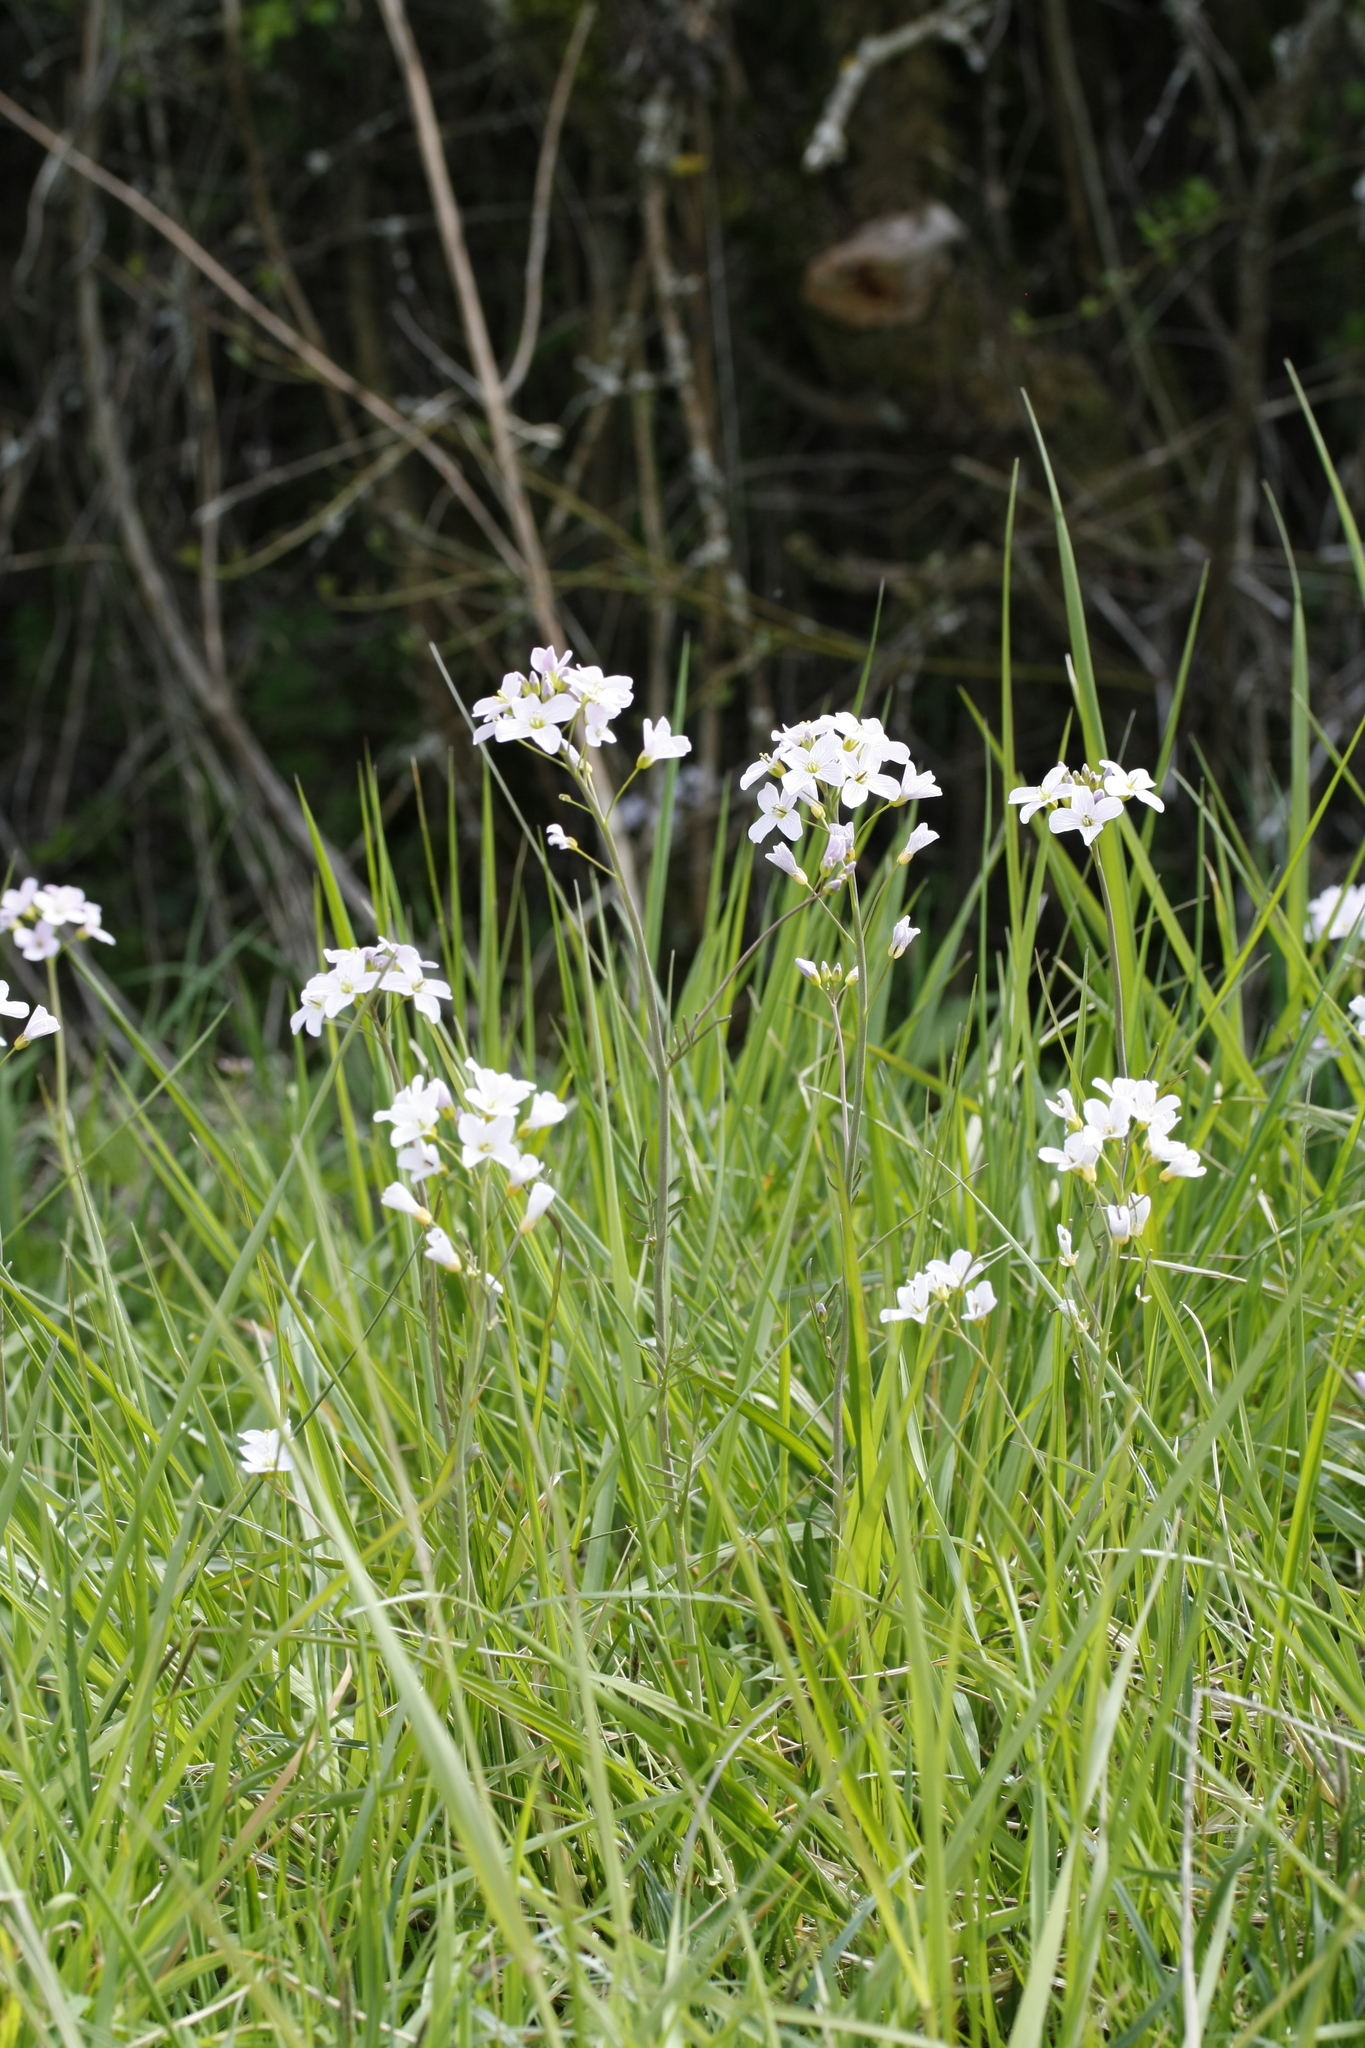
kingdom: Plantae
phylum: Tracheophyta
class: Magnoliopsida
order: Brassicales
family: Brassicaceae
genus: Cardamine
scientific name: Cardamine pratensis
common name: Cuckoo flower
